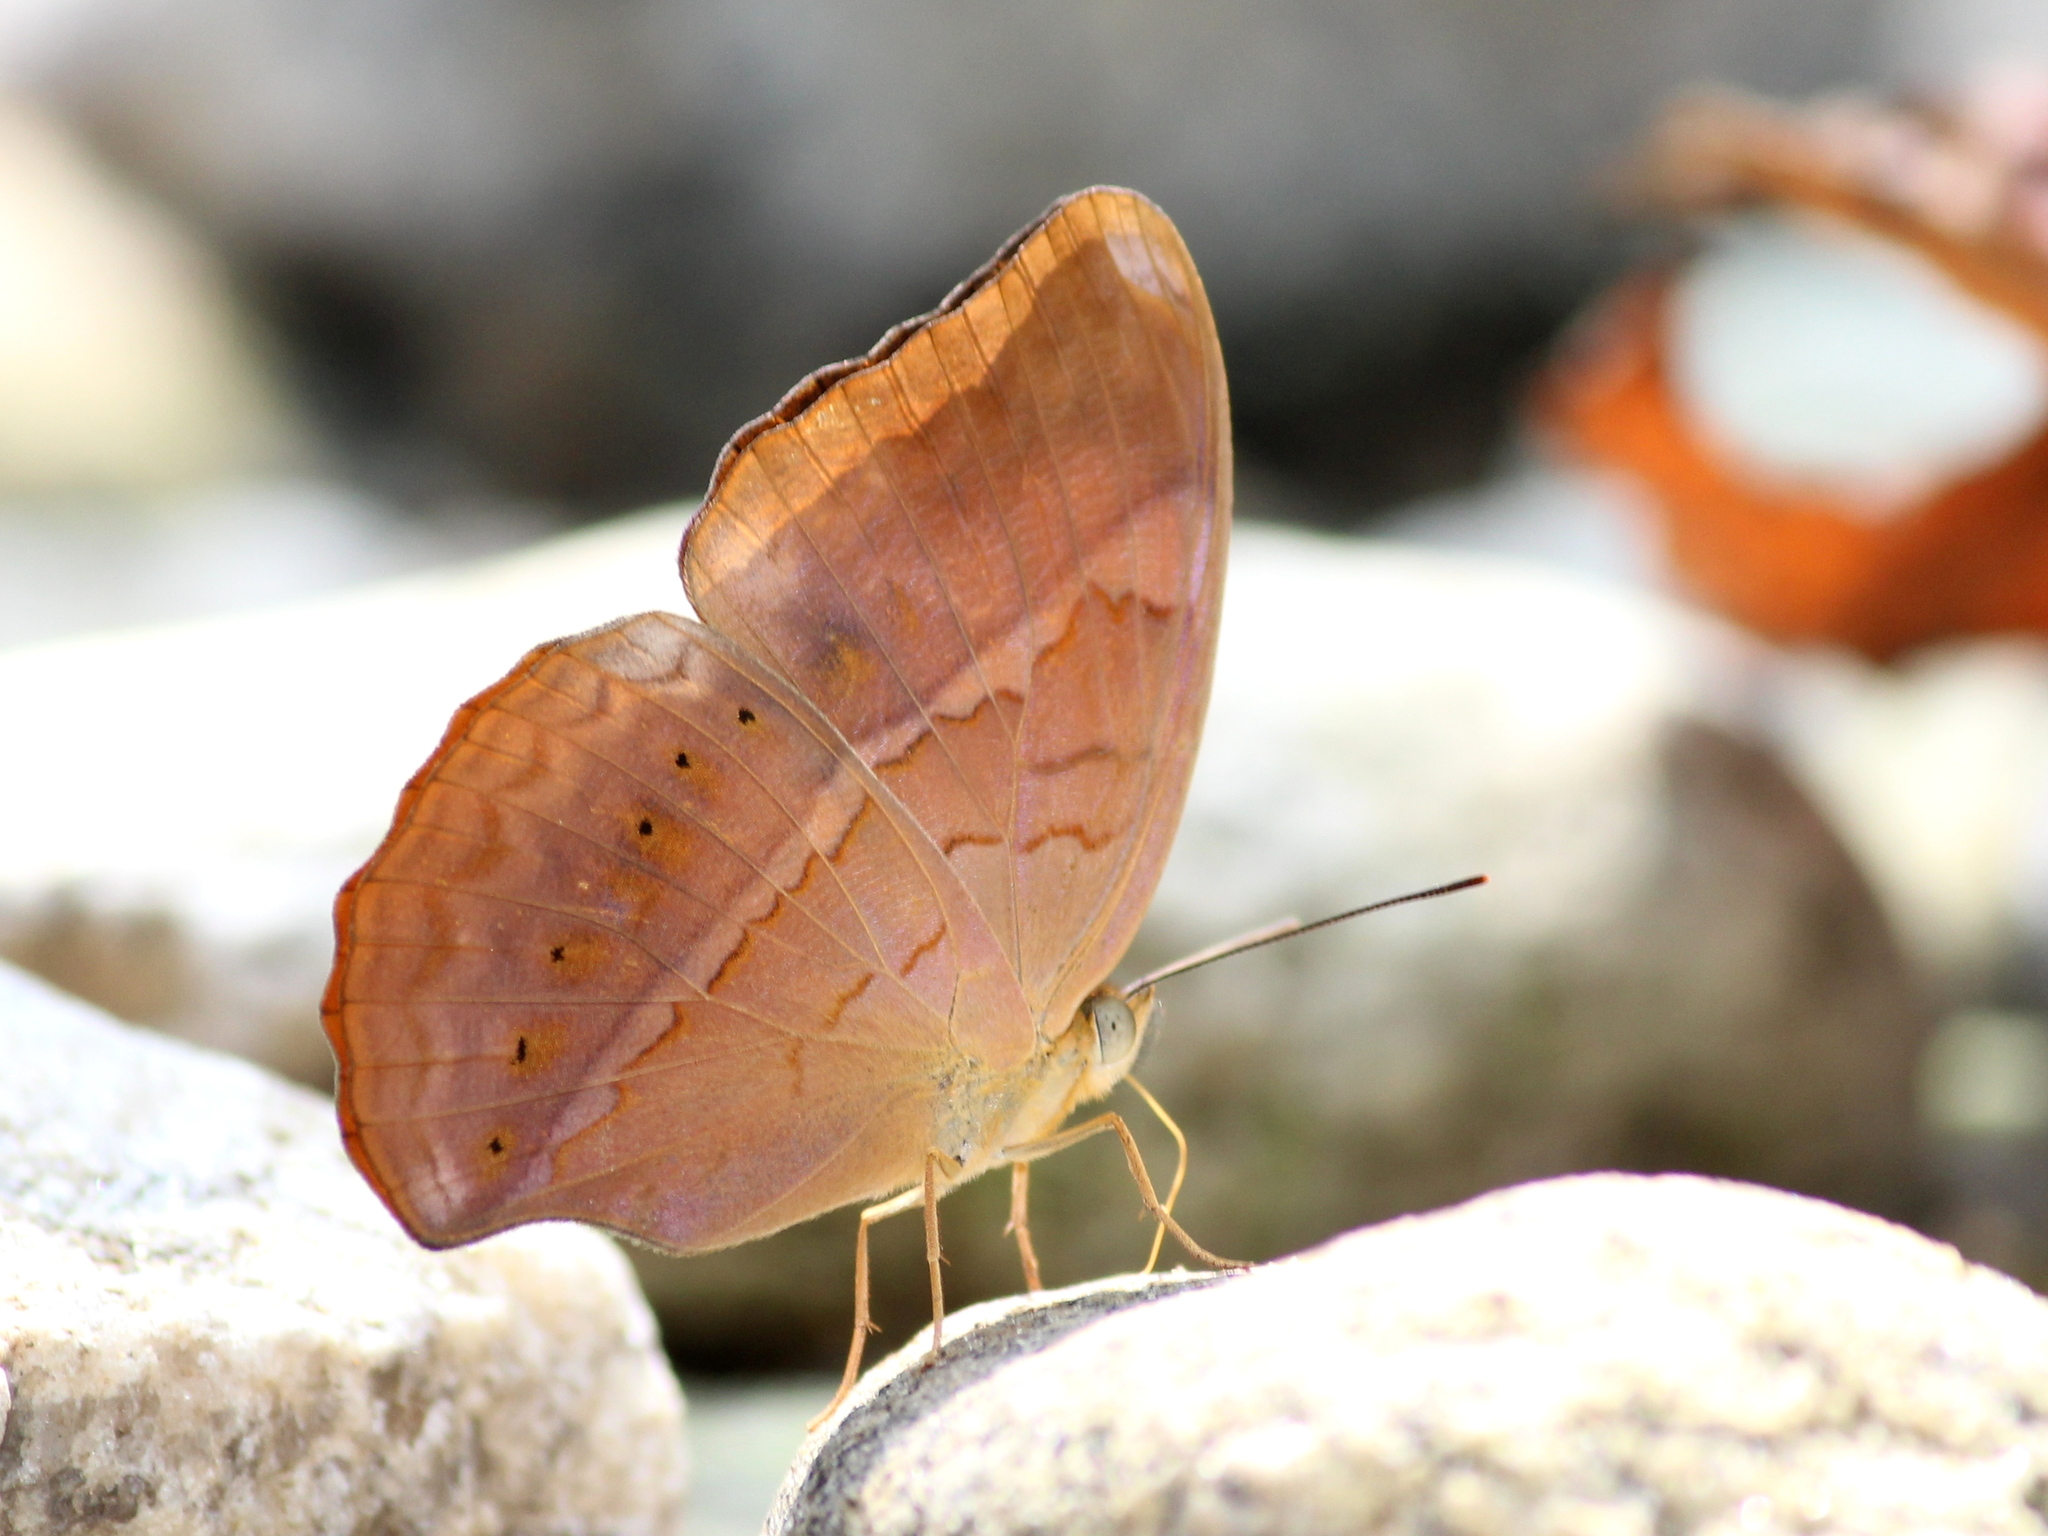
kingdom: Animalia
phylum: Arthropoda
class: Insecta
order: Lepidoptera
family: Nymphalidae
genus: Cirrochroa
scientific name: Cirrochroa thais
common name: Tamil yeoman
